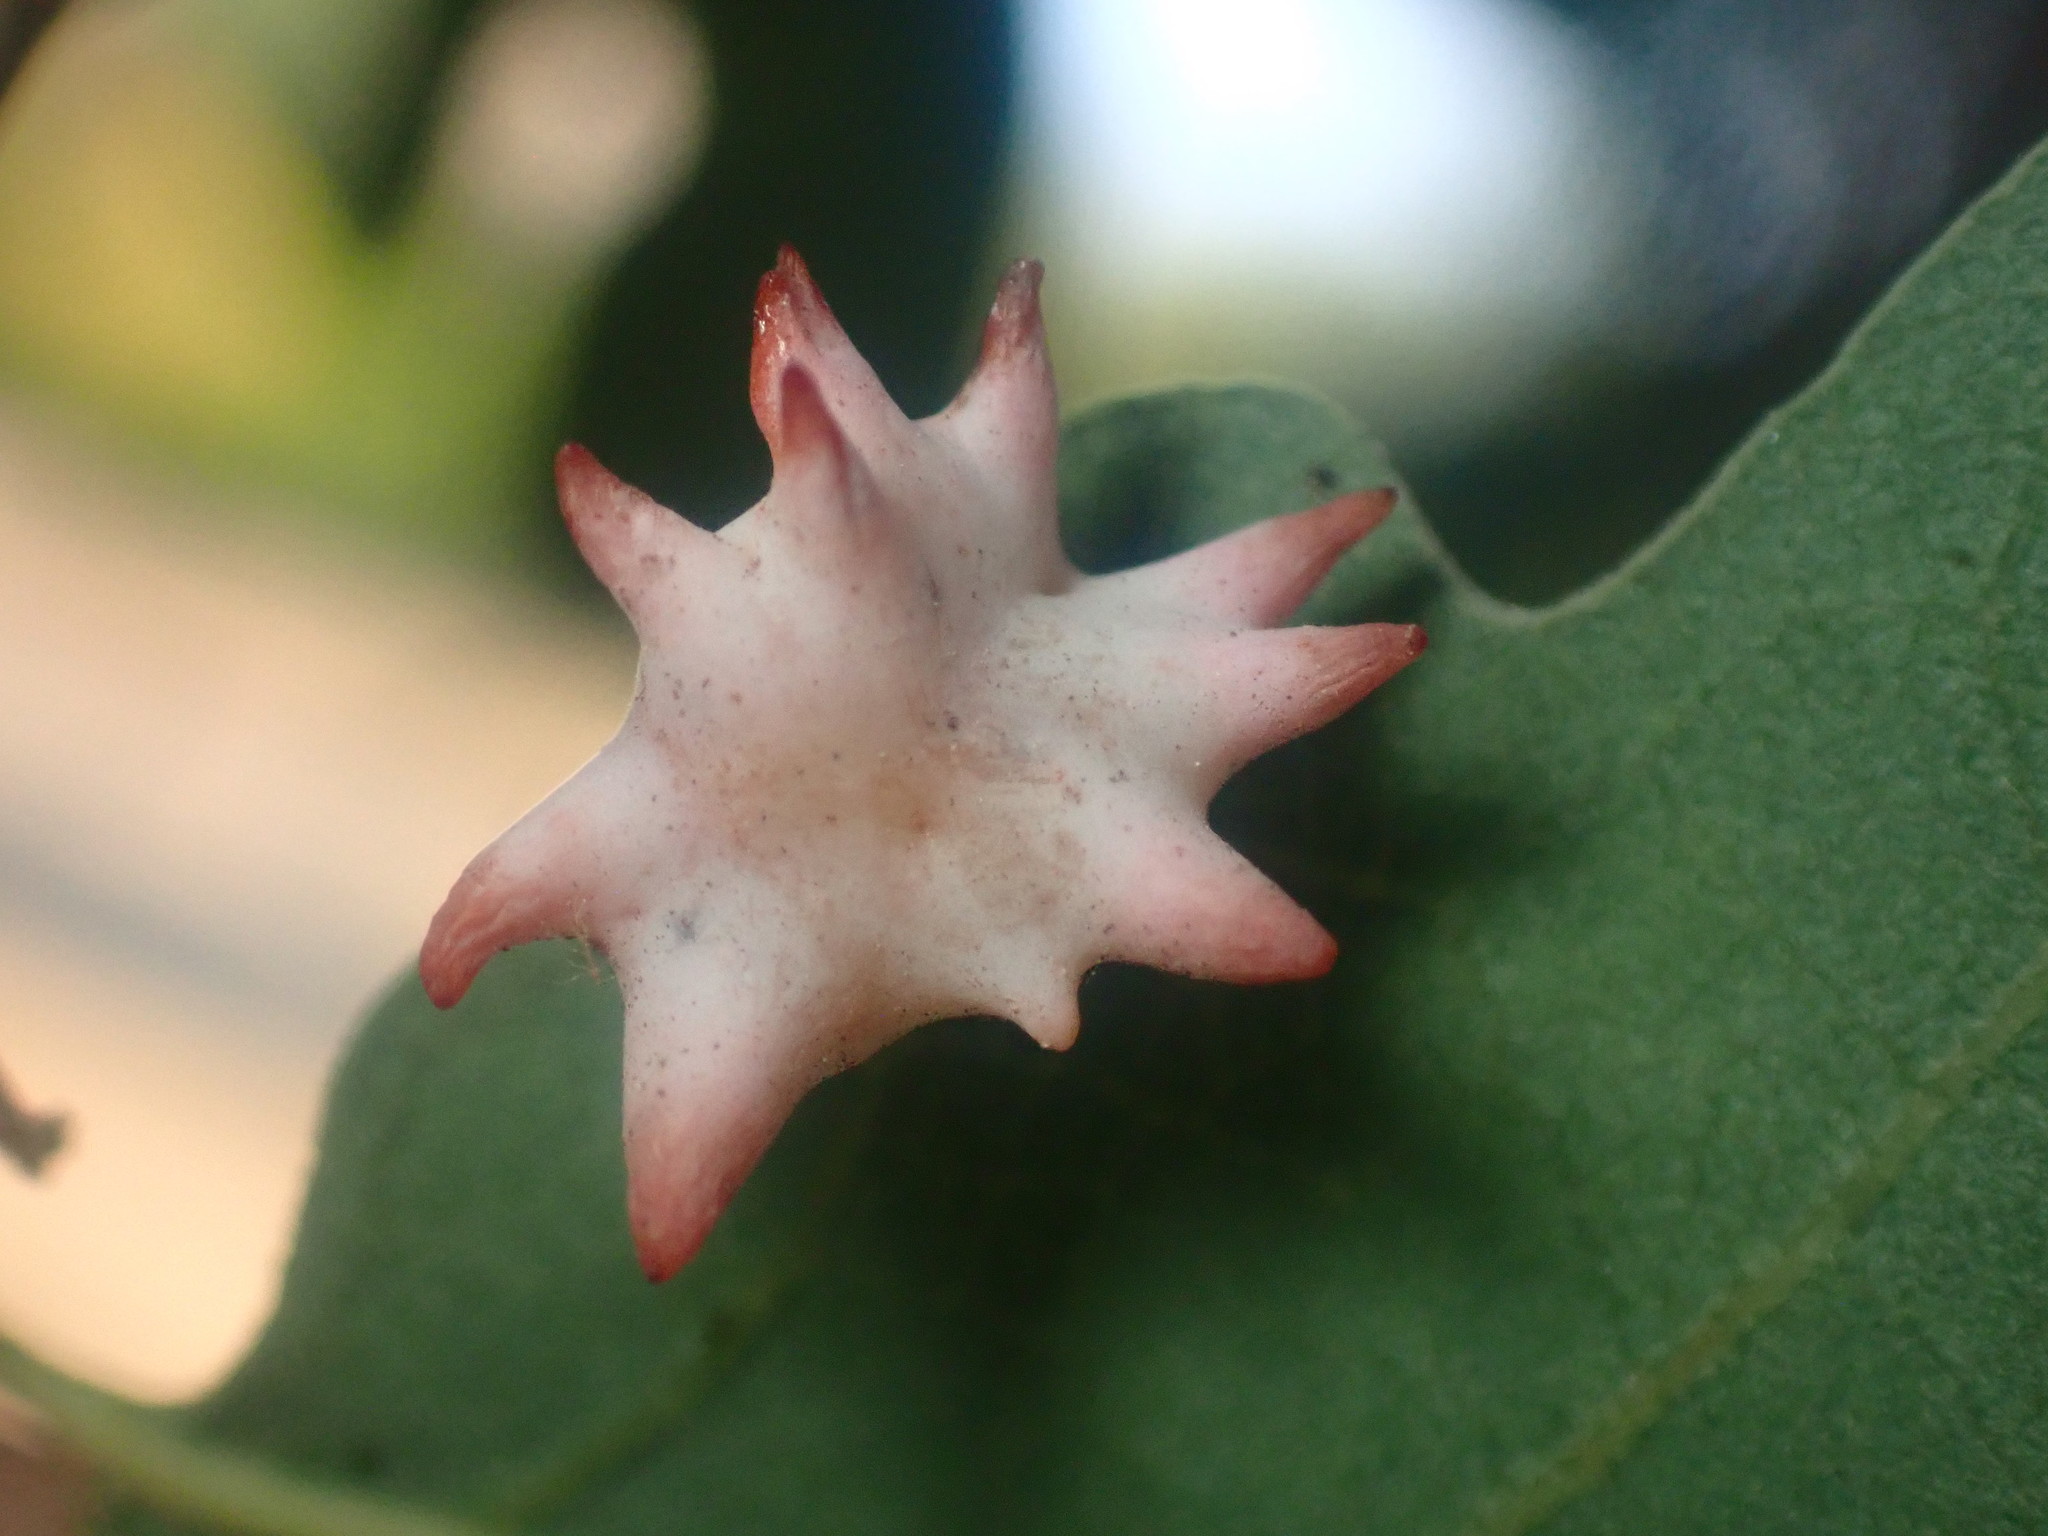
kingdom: Animalia
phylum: Arthropoda
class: Insecta
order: Hymenoptera
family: Cynipidae
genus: Cynips
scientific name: Cynips douglasi
